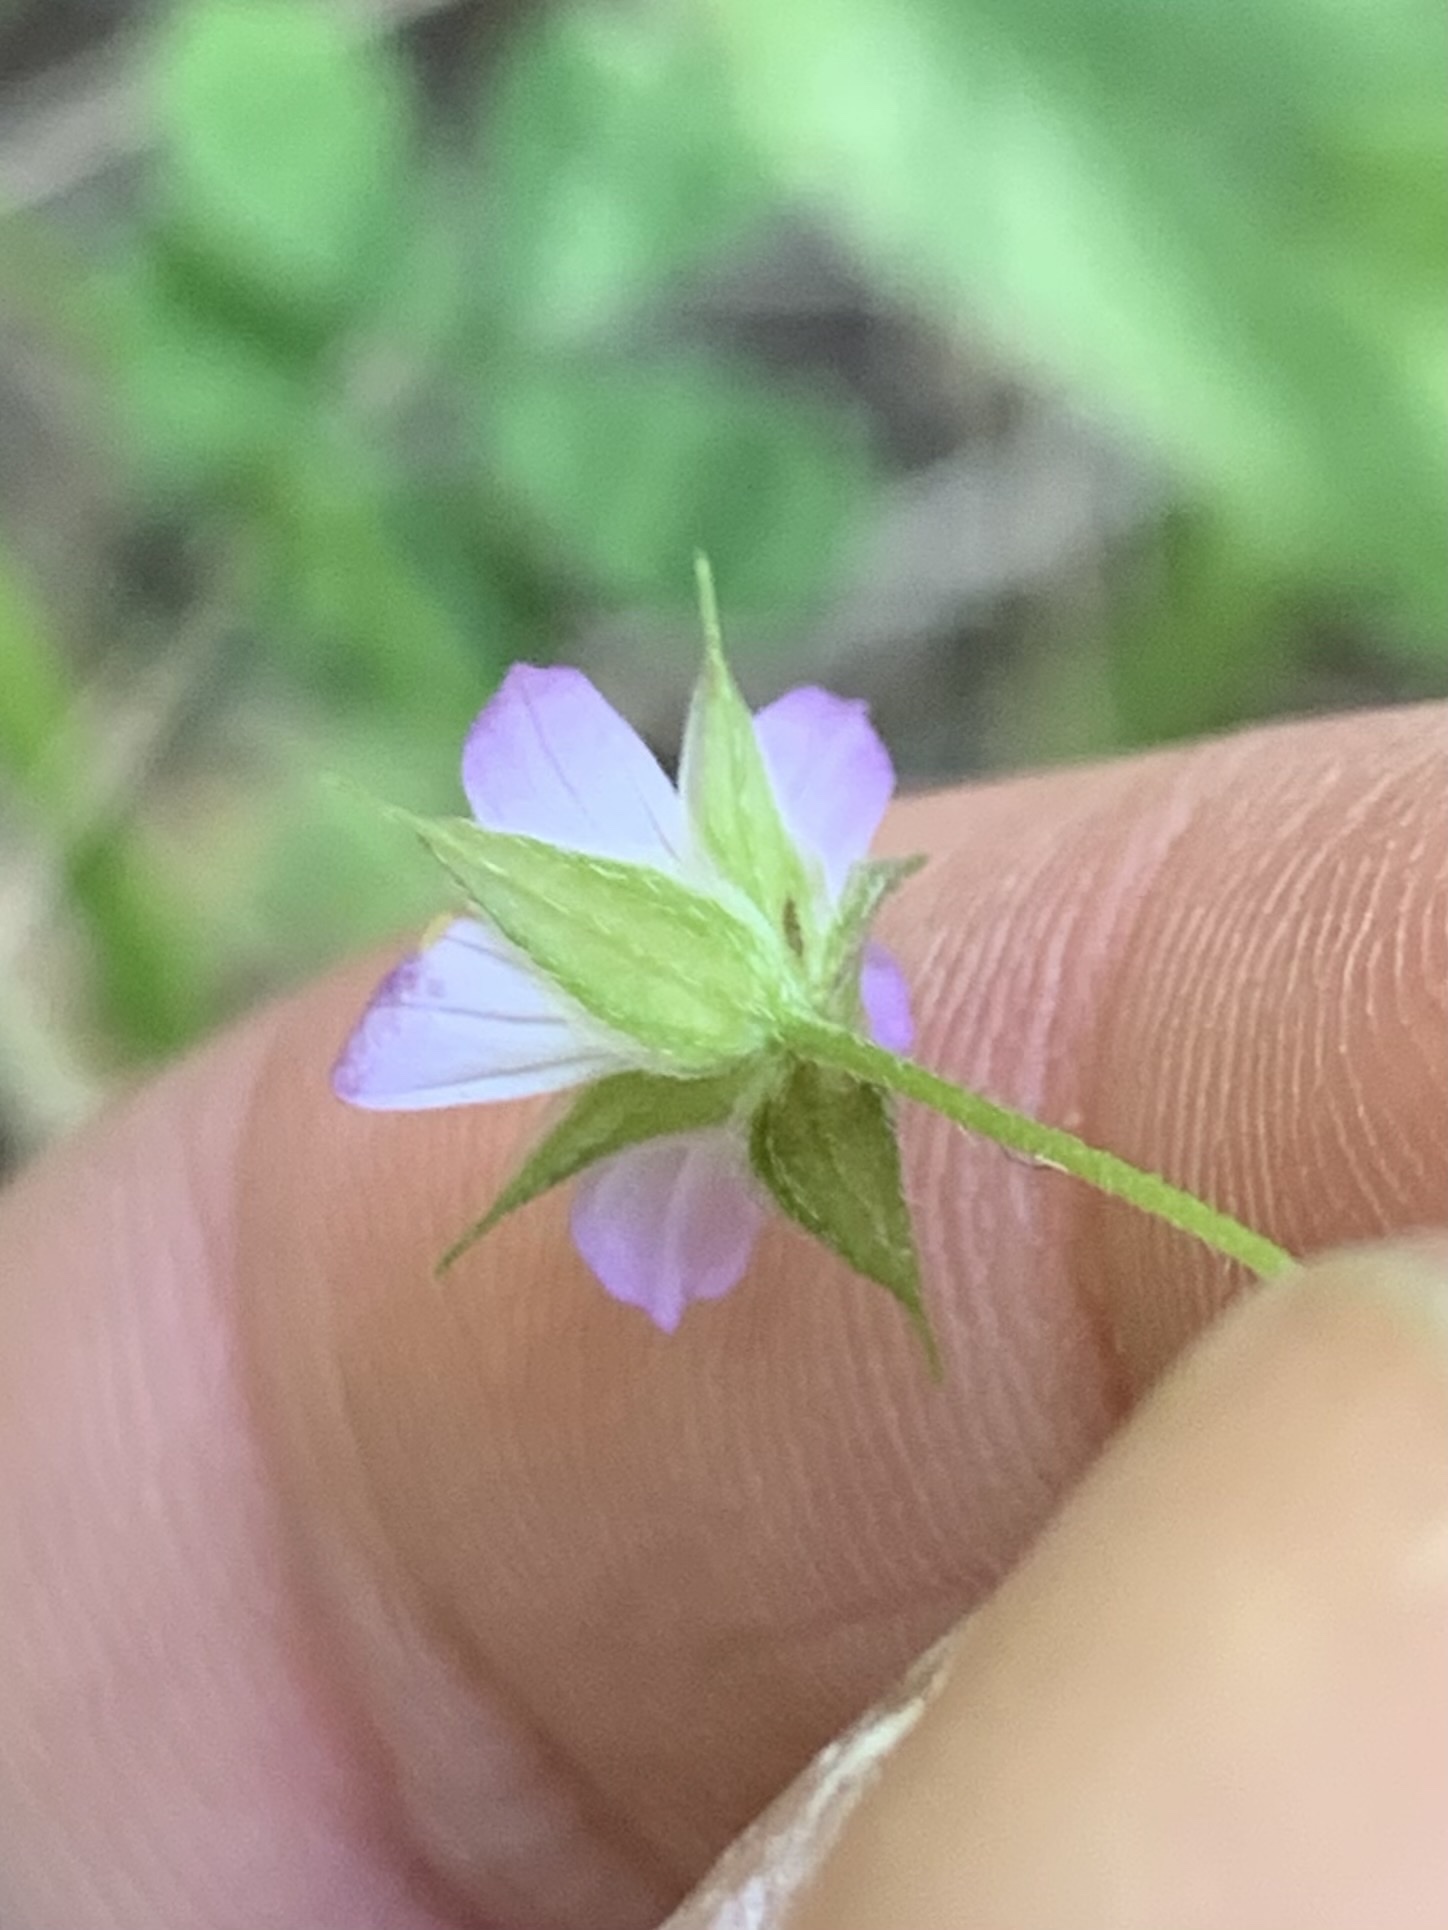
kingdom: Plantae
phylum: Tracheophyta
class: Magnoliopsida
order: Geraniales
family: Geraniaceae
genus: Geranium
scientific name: Geranium columbinum
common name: Long-stalked crane's-bill
